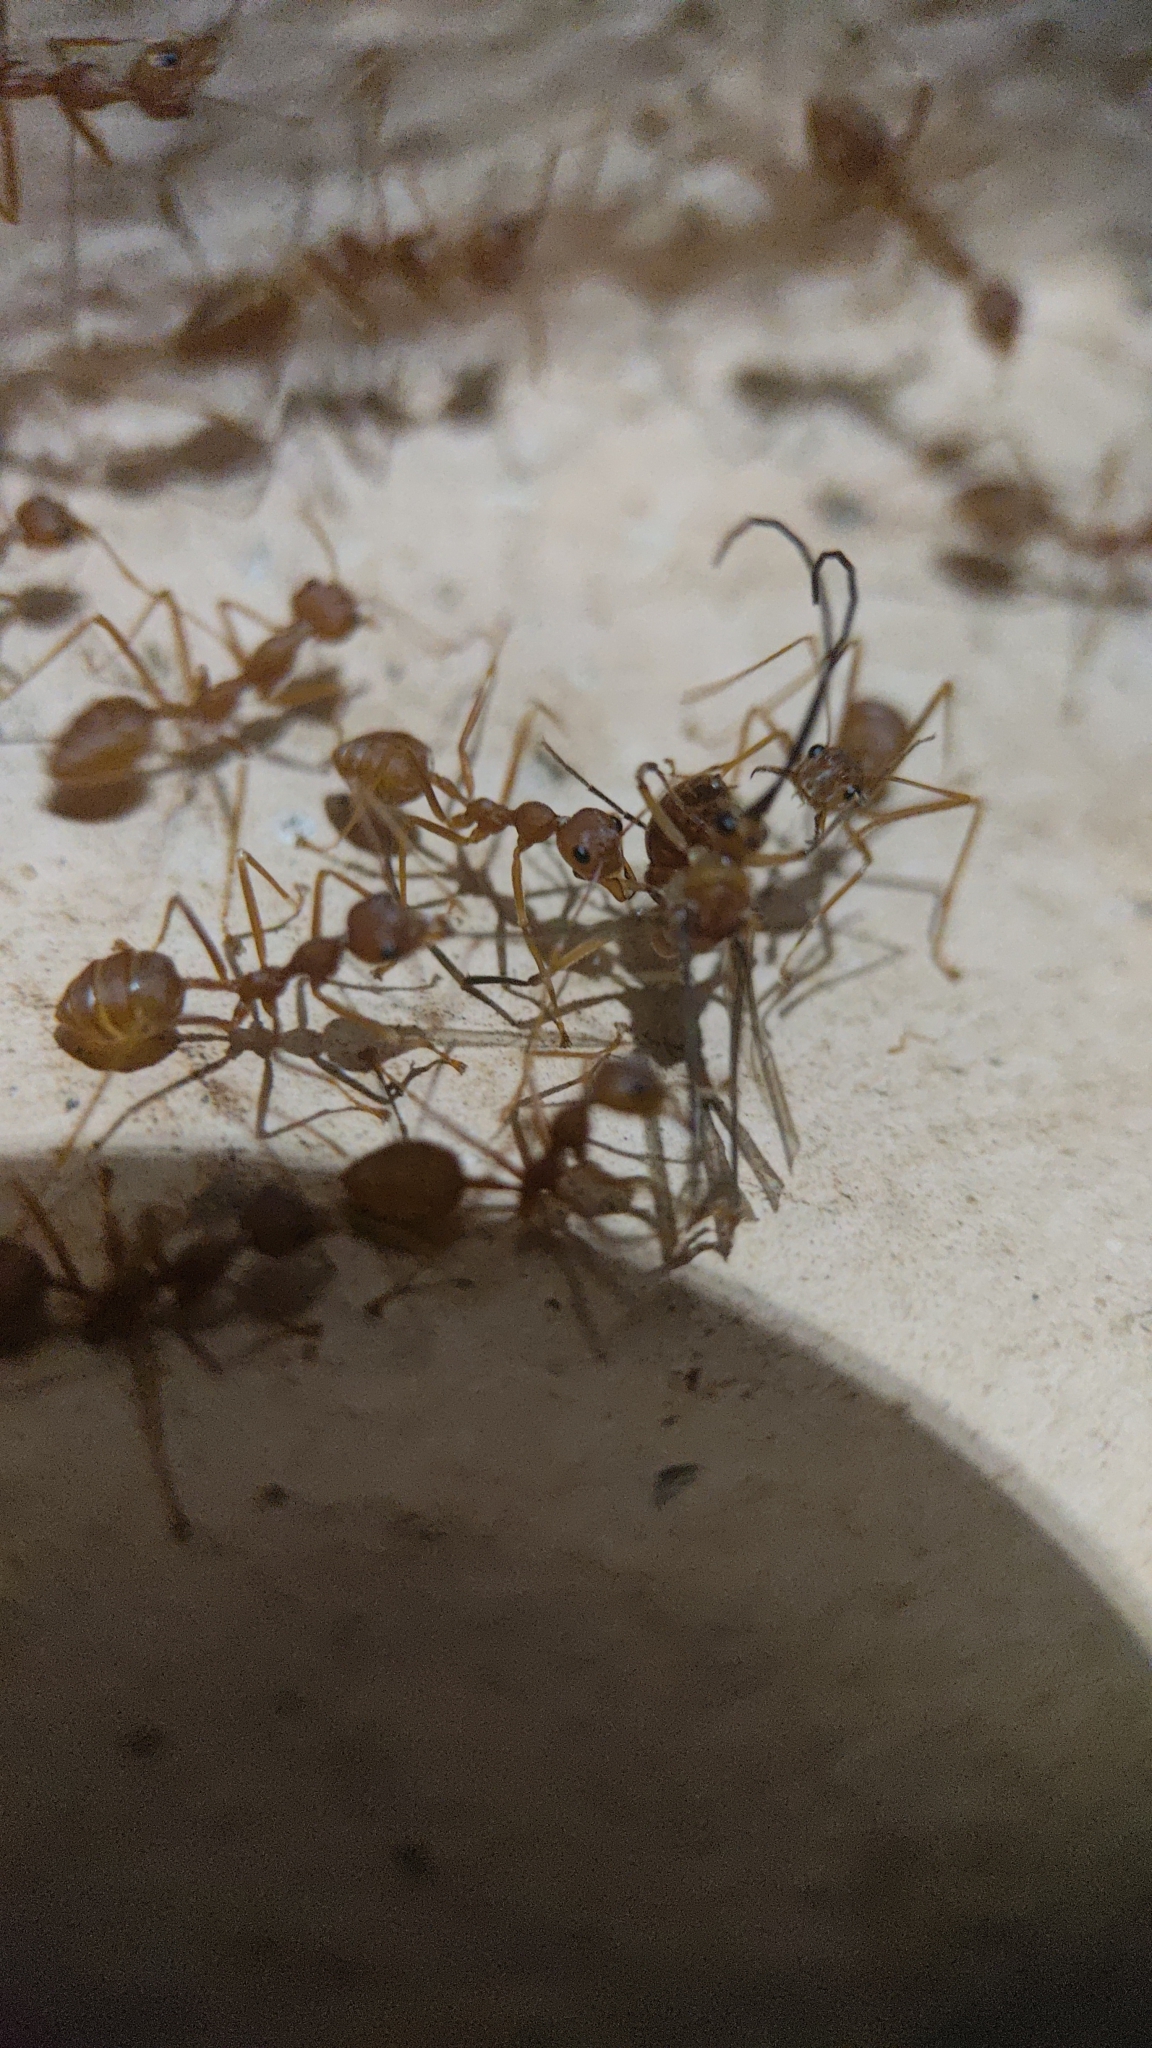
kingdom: Animalia
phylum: Arthropoda
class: Insecta
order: Hymenoptera
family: Formicidae
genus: Oecophylla
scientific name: Oecophylla smaragdina
